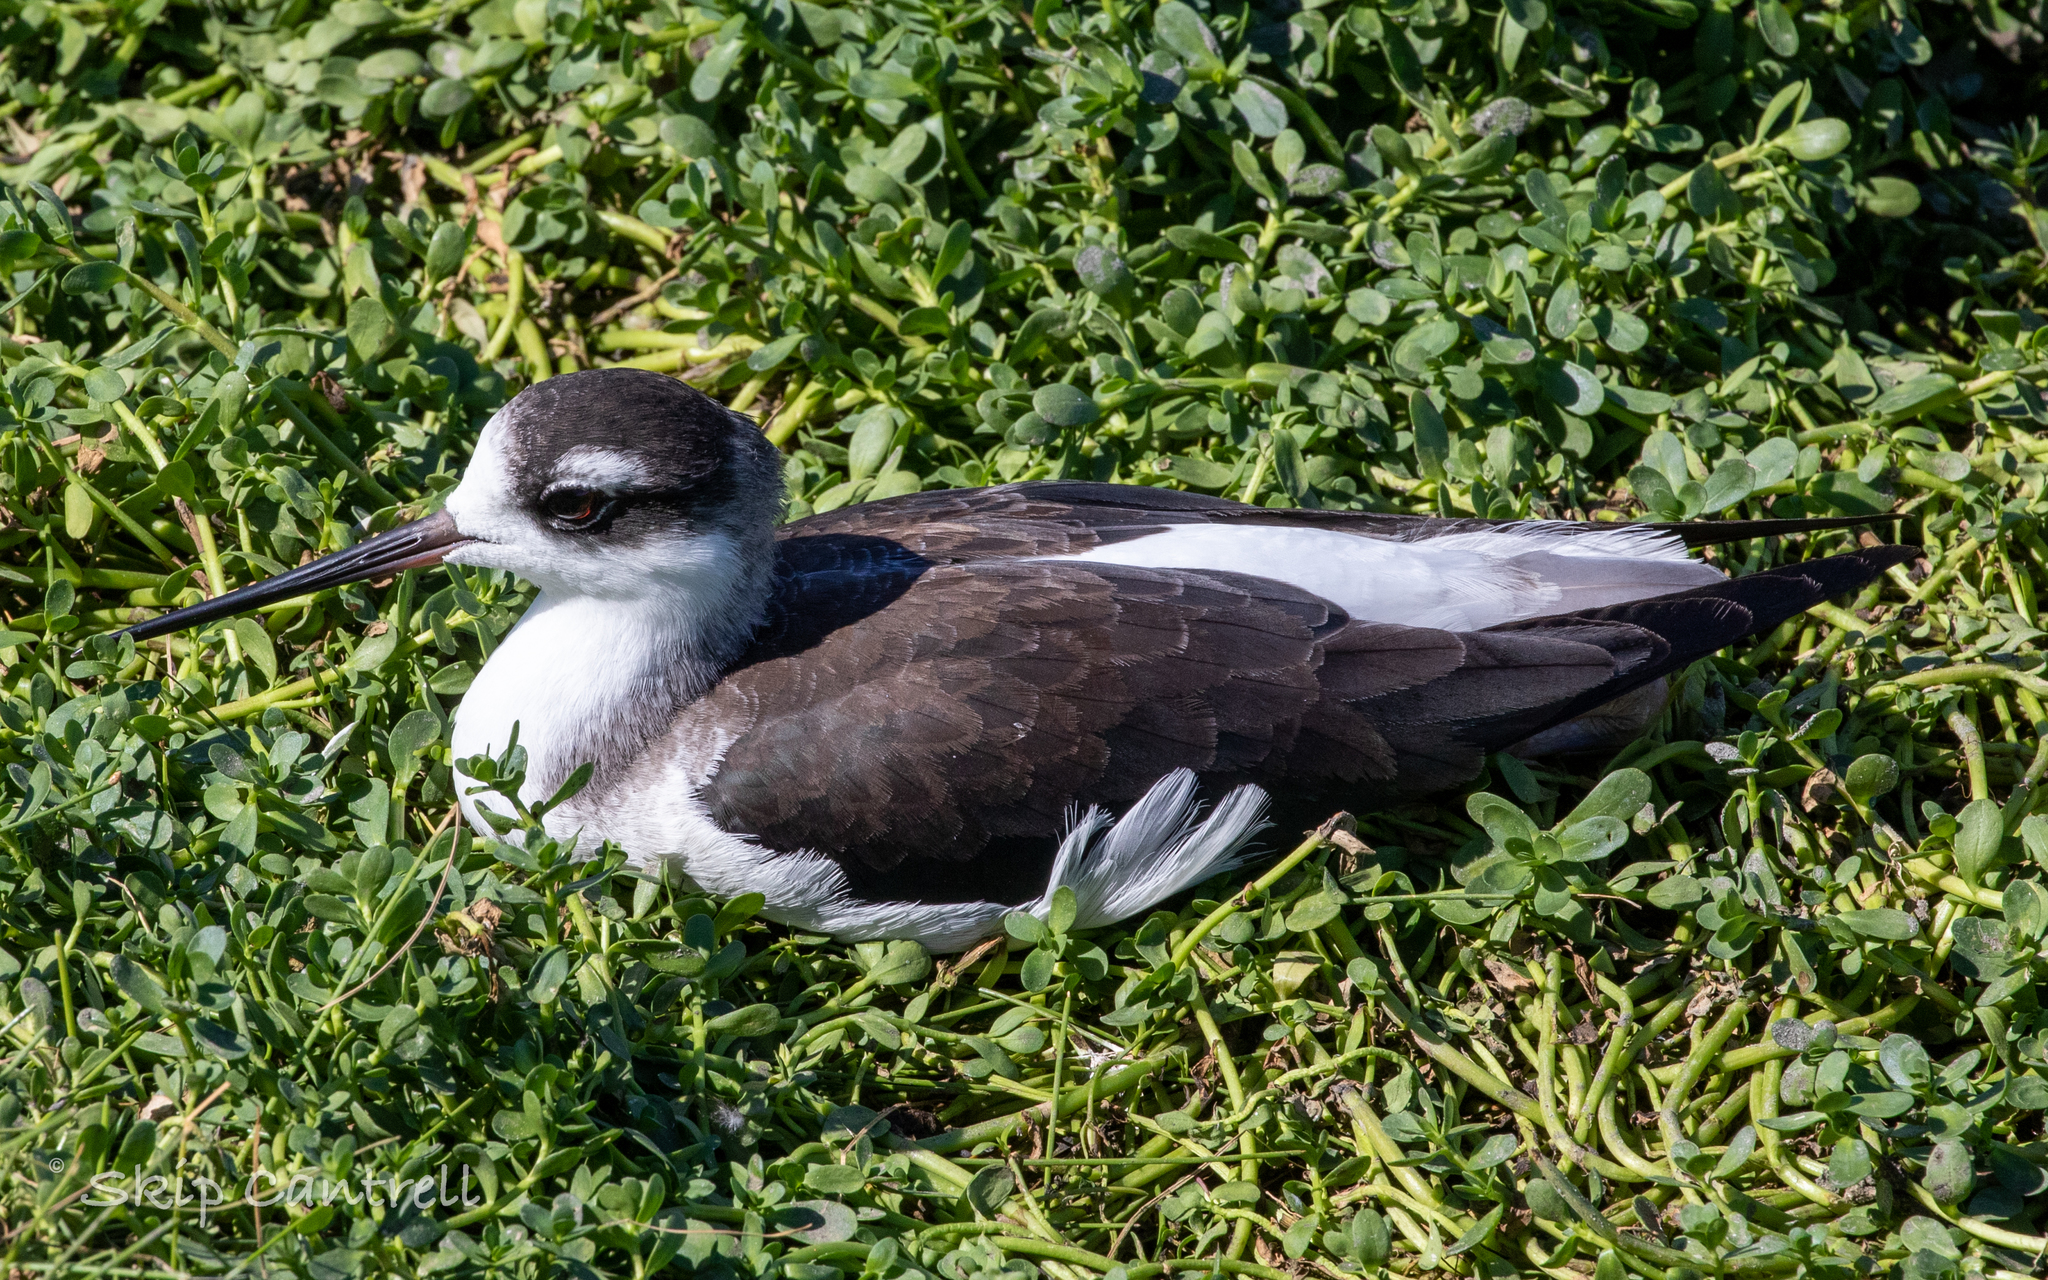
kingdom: Animalia
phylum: Chordata
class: Aves
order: Charadriiformes
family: Recurvirostridae
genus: Himantopus
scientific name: Himantopus mexicanus
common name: Black-necked stilt
